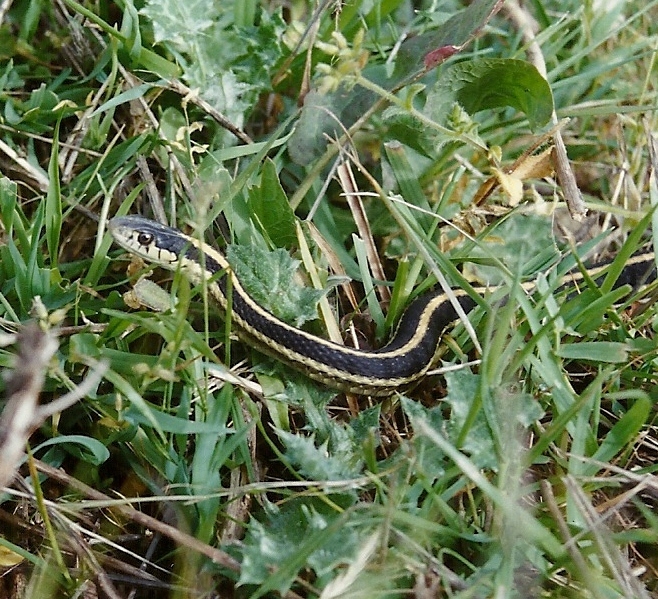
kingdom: Animalia
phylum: Chordata
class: Squamata
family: Colubridae
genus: Thamnophis
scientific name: Thamnophis elegans
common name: Western terrestrial garter snake
